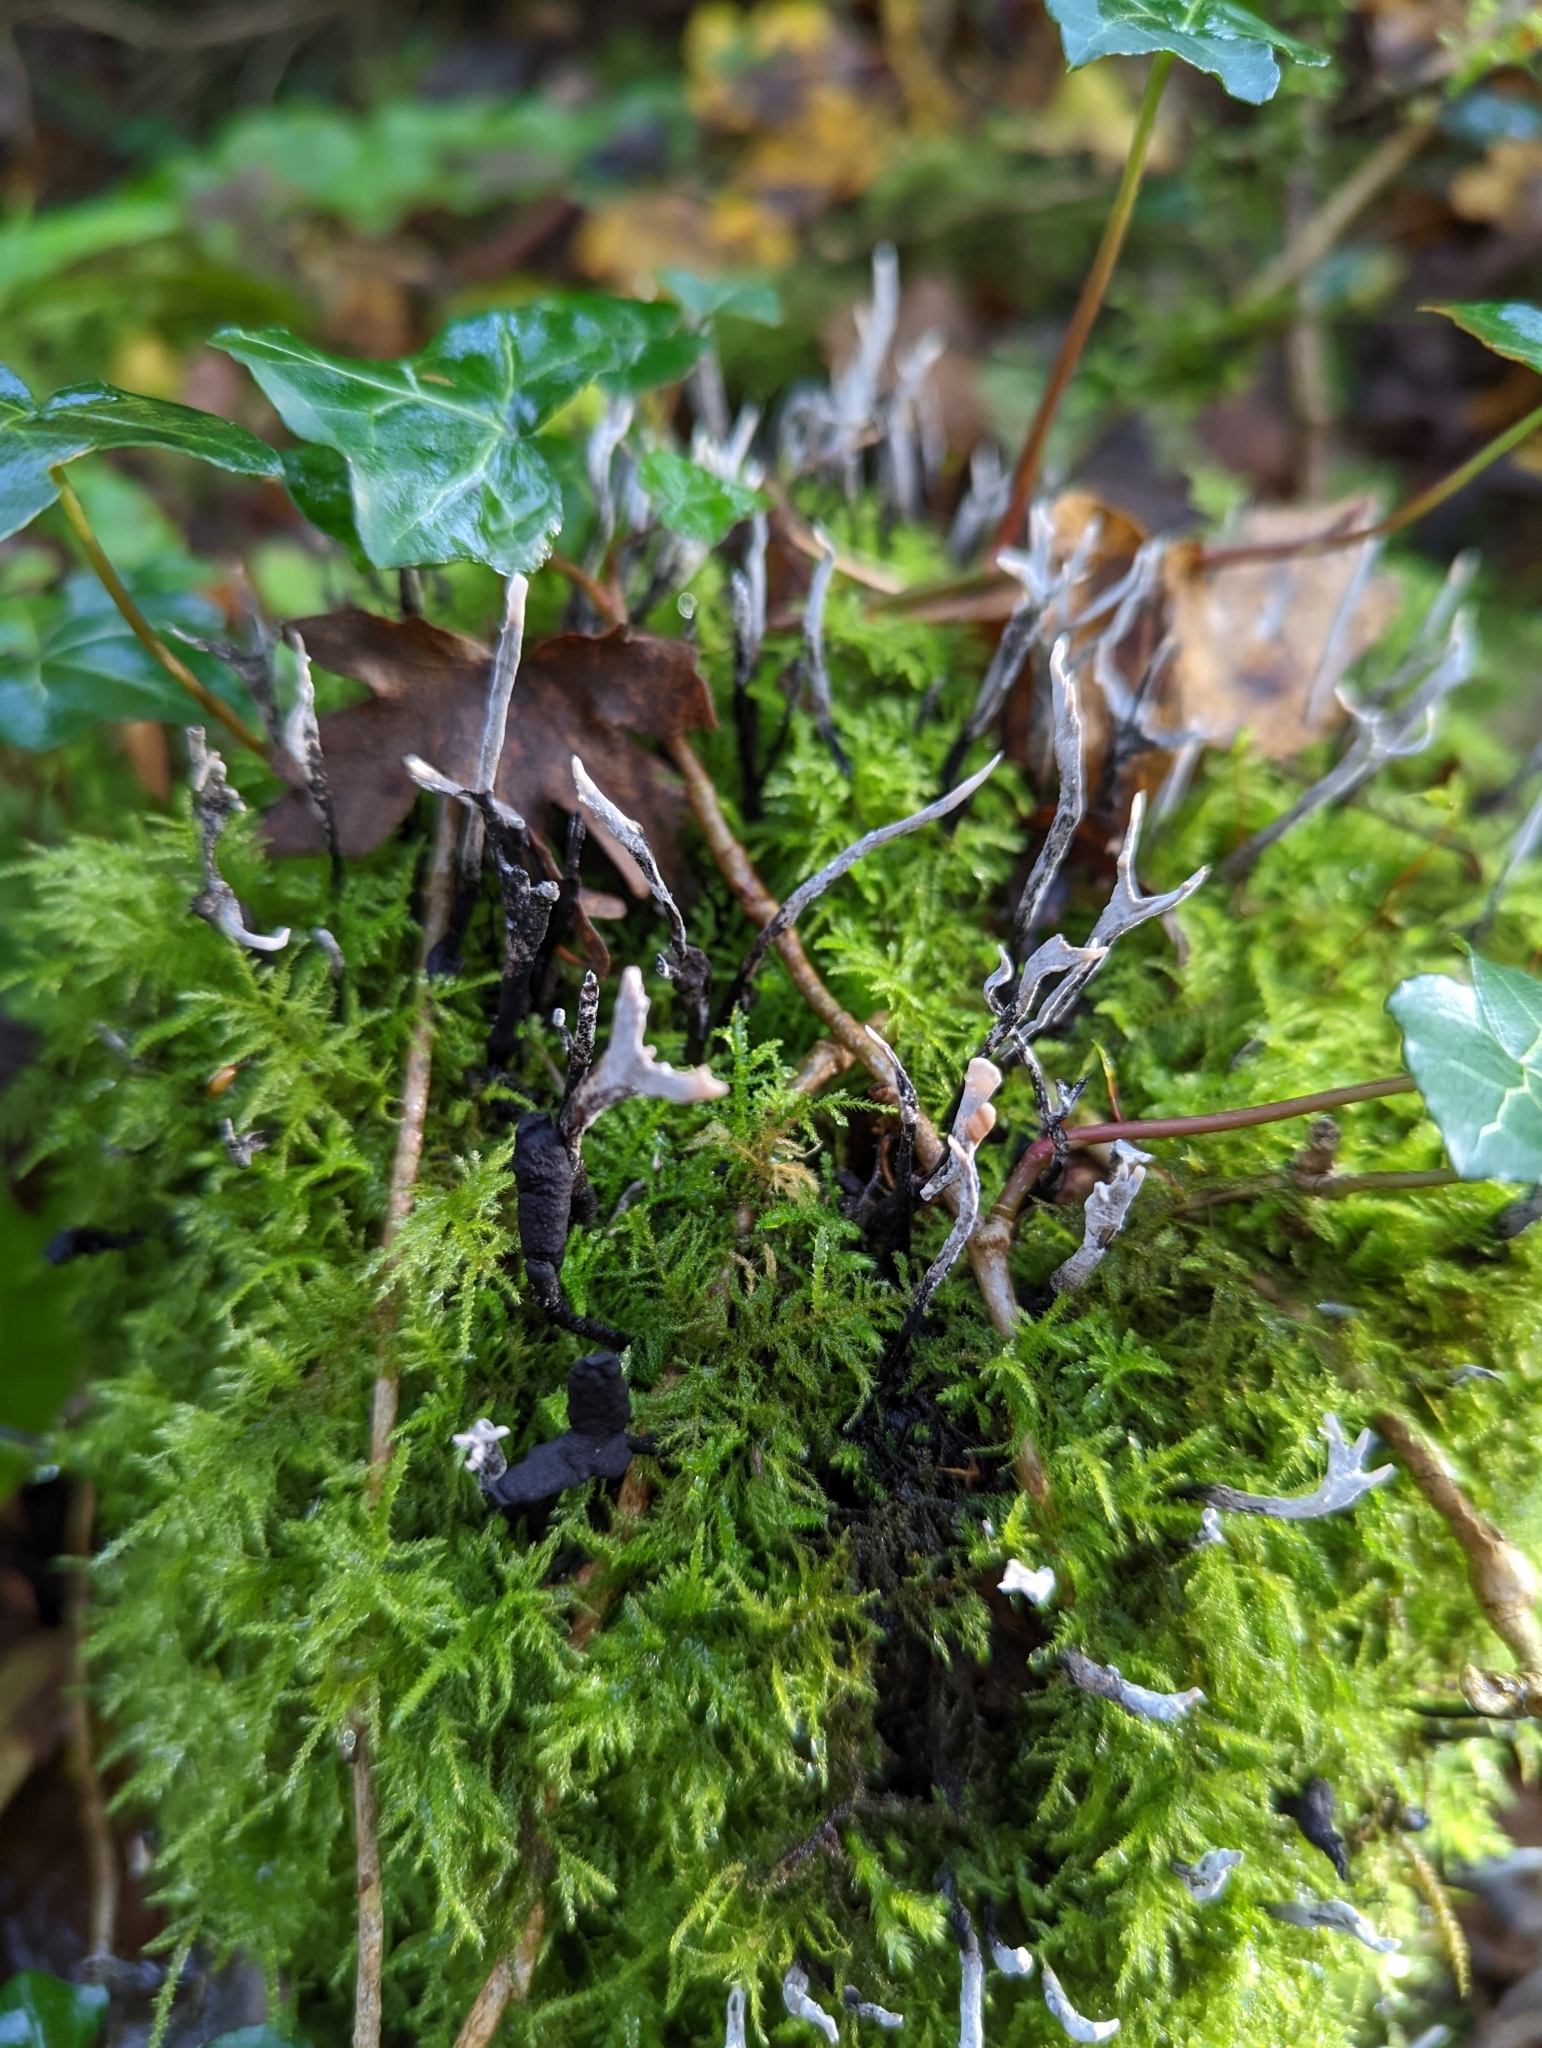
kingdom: Fungi
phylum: Ascomycota
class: Sordariomycetes
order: Xylariales
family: Xylariaceae
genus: Xylaria
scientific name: Xylaria hypoxylon
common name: Candle-snuff fungus
